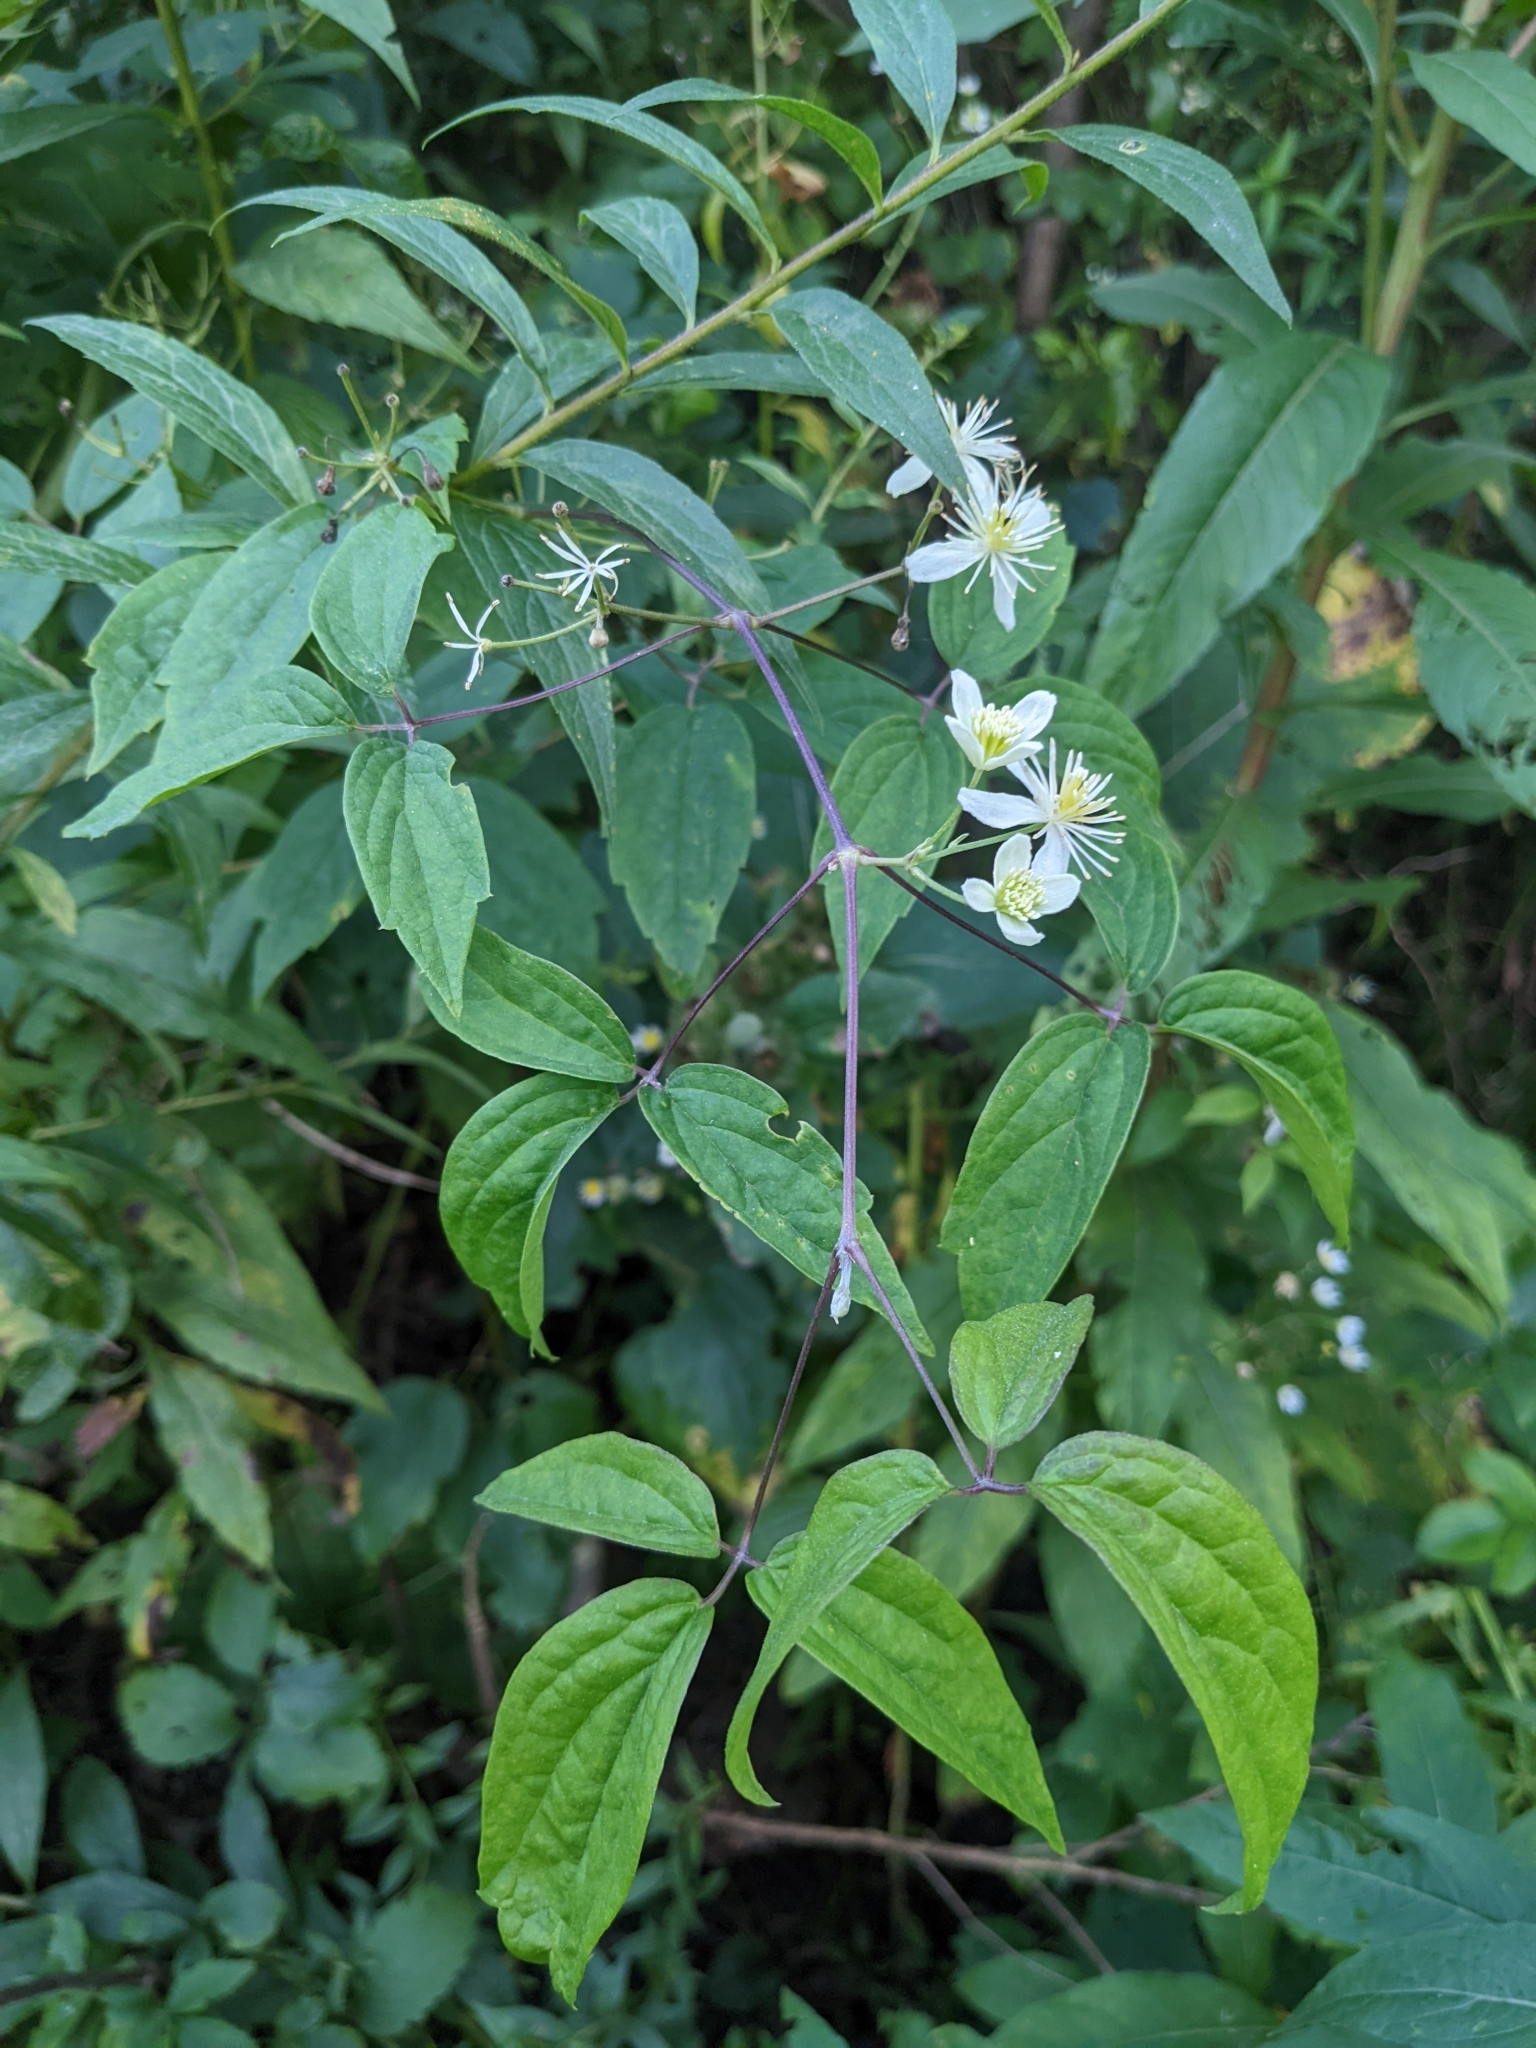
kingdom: Plantae
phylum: Tracheophyta
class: Magnoliopsida
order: Ranunculales
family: Ranunculaceae
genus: Clematis
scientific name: Clematis virginiana
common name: Virgin's-bower
